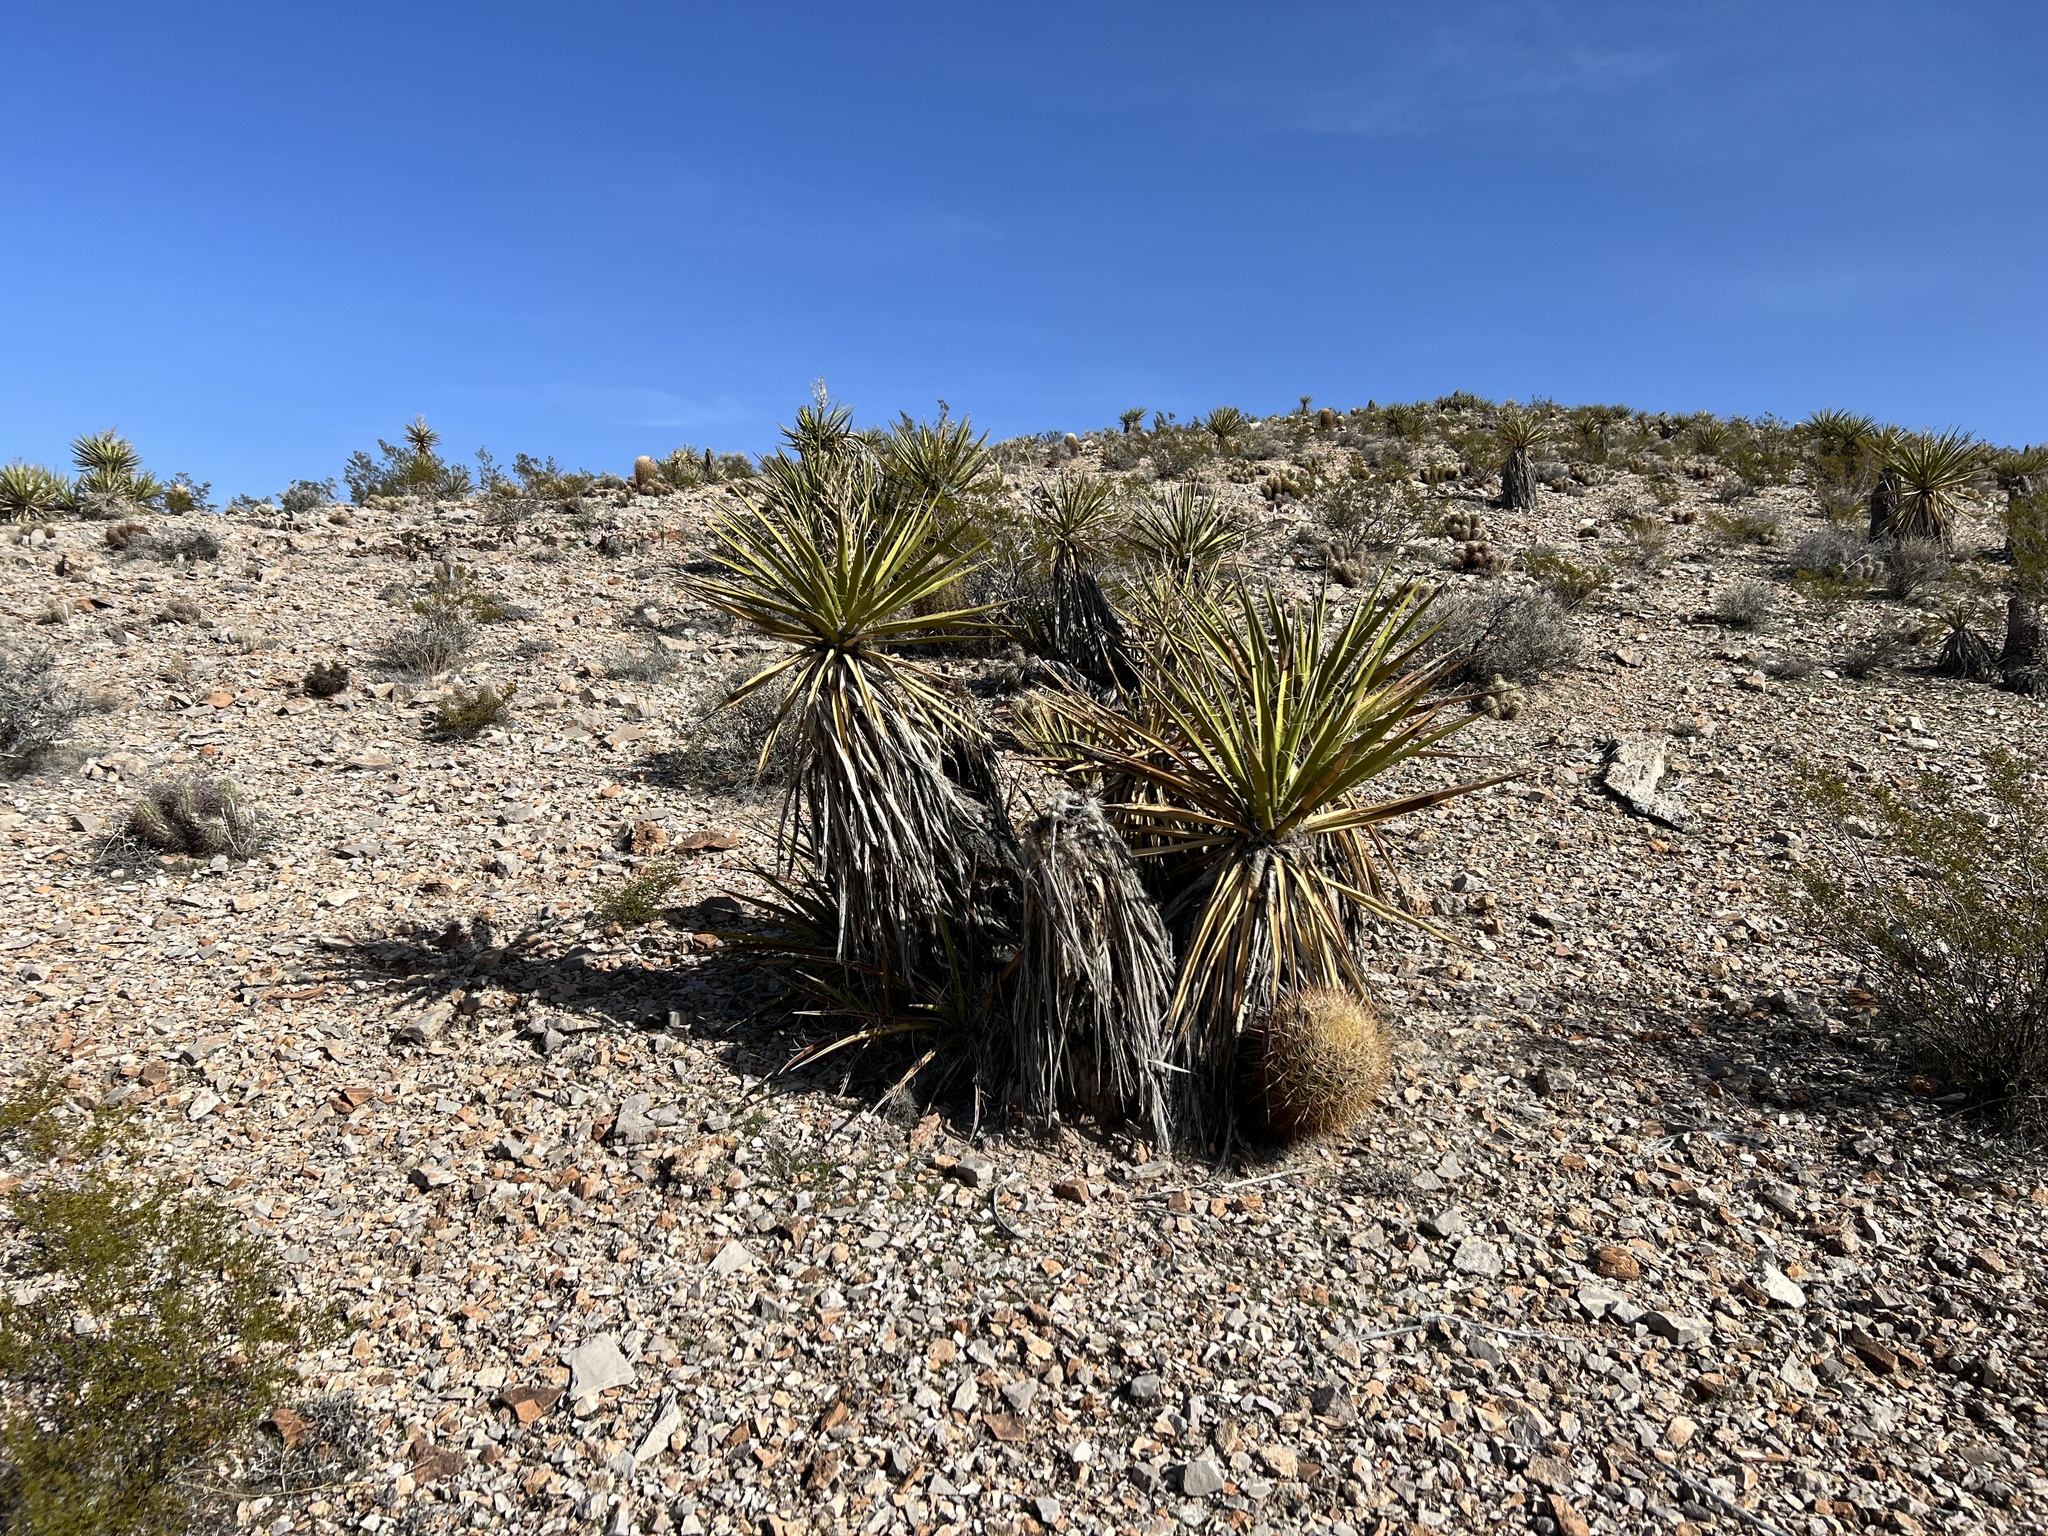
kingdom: Plantae
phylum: Tracheophyta
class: Liliopsida
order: Asparagales
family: Asparagaceae
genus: Yucca
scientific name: Yucca schidigera
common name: Mojave yucca
